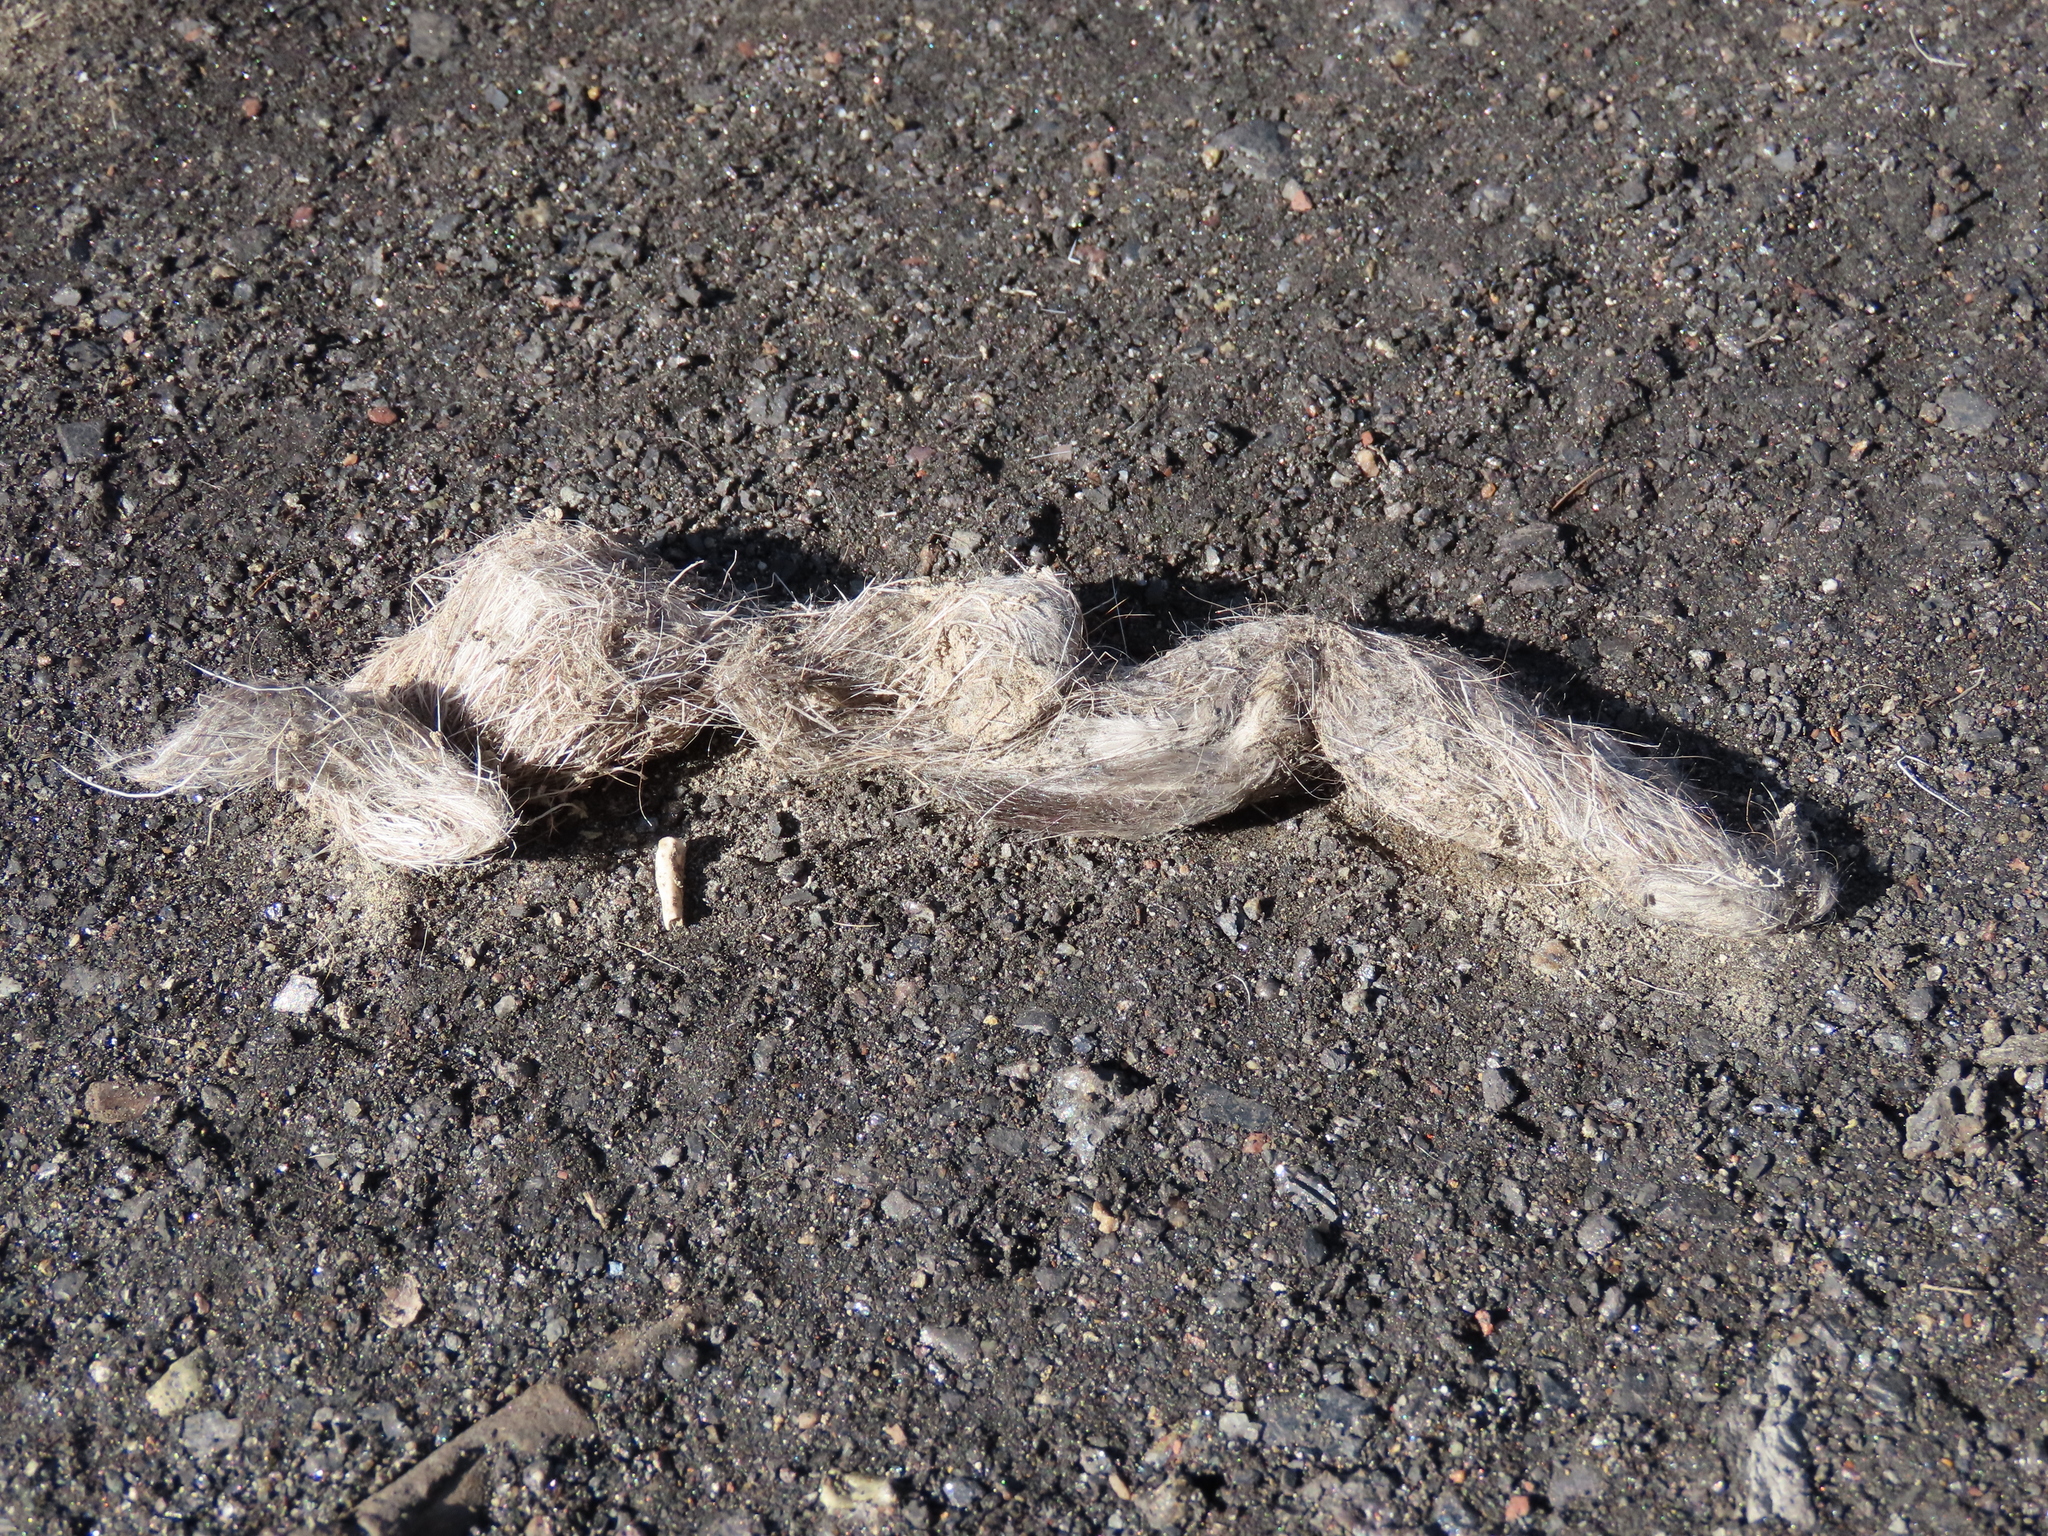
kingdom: Animalia
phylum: Chordata
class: Mammalia
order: Carnivora
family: Canidae
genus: Canis
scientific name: Canis latrans
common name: Coyote
